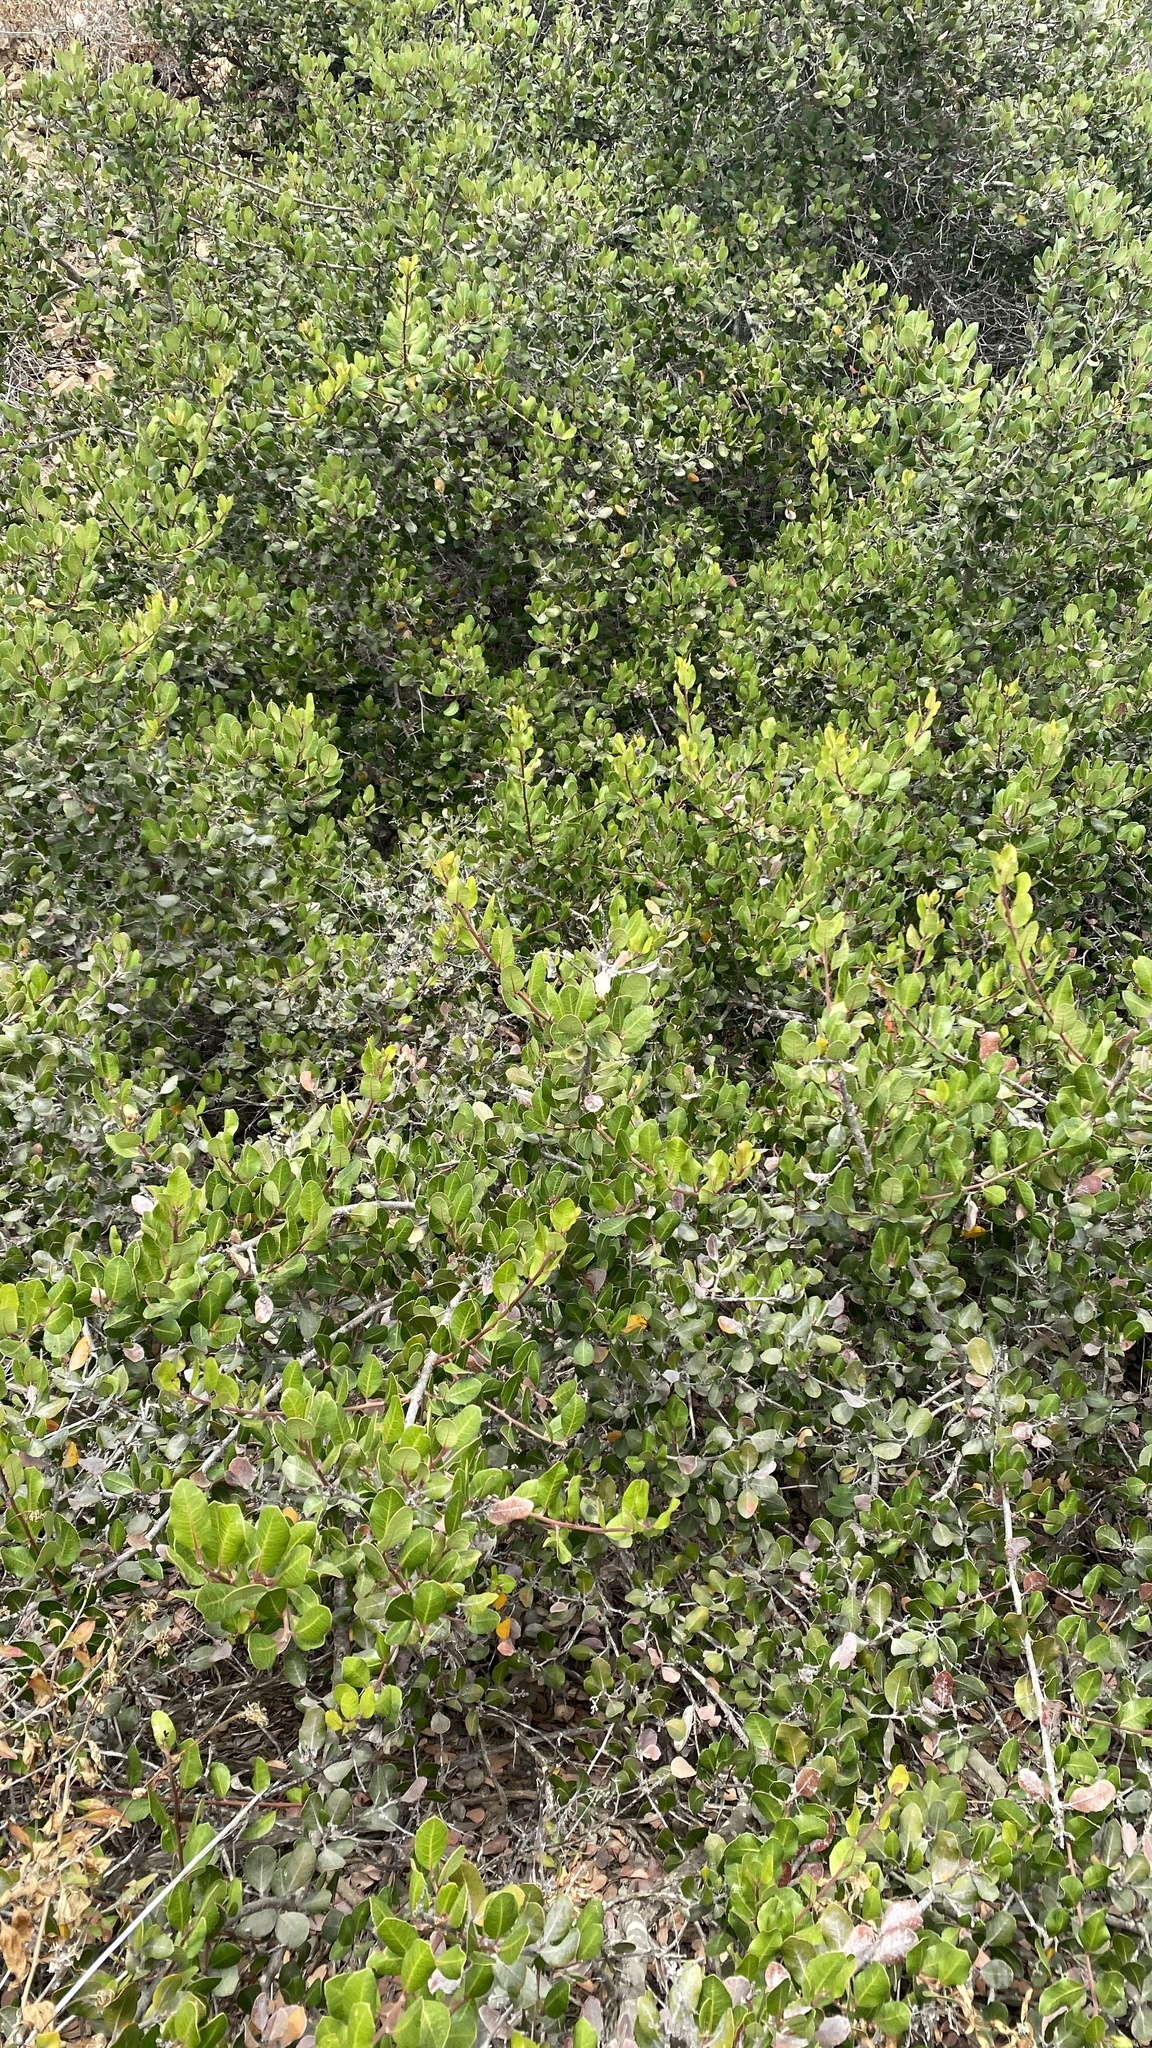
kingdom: Plantae
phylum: Tracheophyta
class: Magnoliopsida
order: Sapindales
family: Anacardiaceae
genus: Rhus
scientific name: Rhus integrifolia
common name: Lemonade sumac
